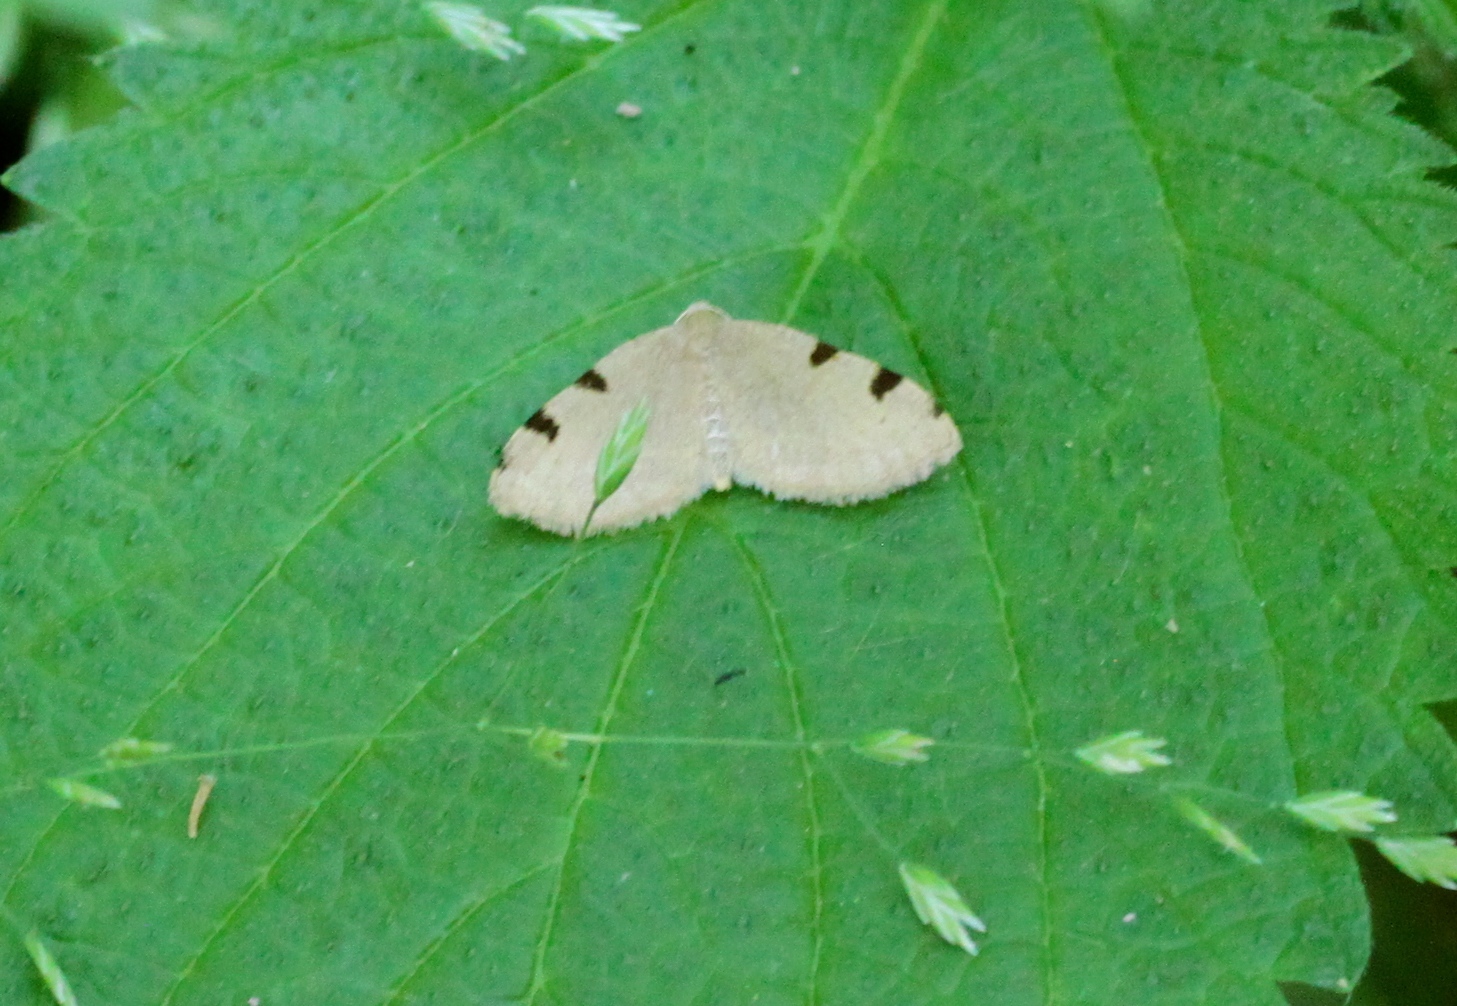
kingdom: Animalia
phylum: Arthropoda
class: Insecta
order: Lepidoptera
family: Geometridae
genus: Heterophleps
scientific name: Heterophleps triguttaria
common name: Three-spotted fillip
